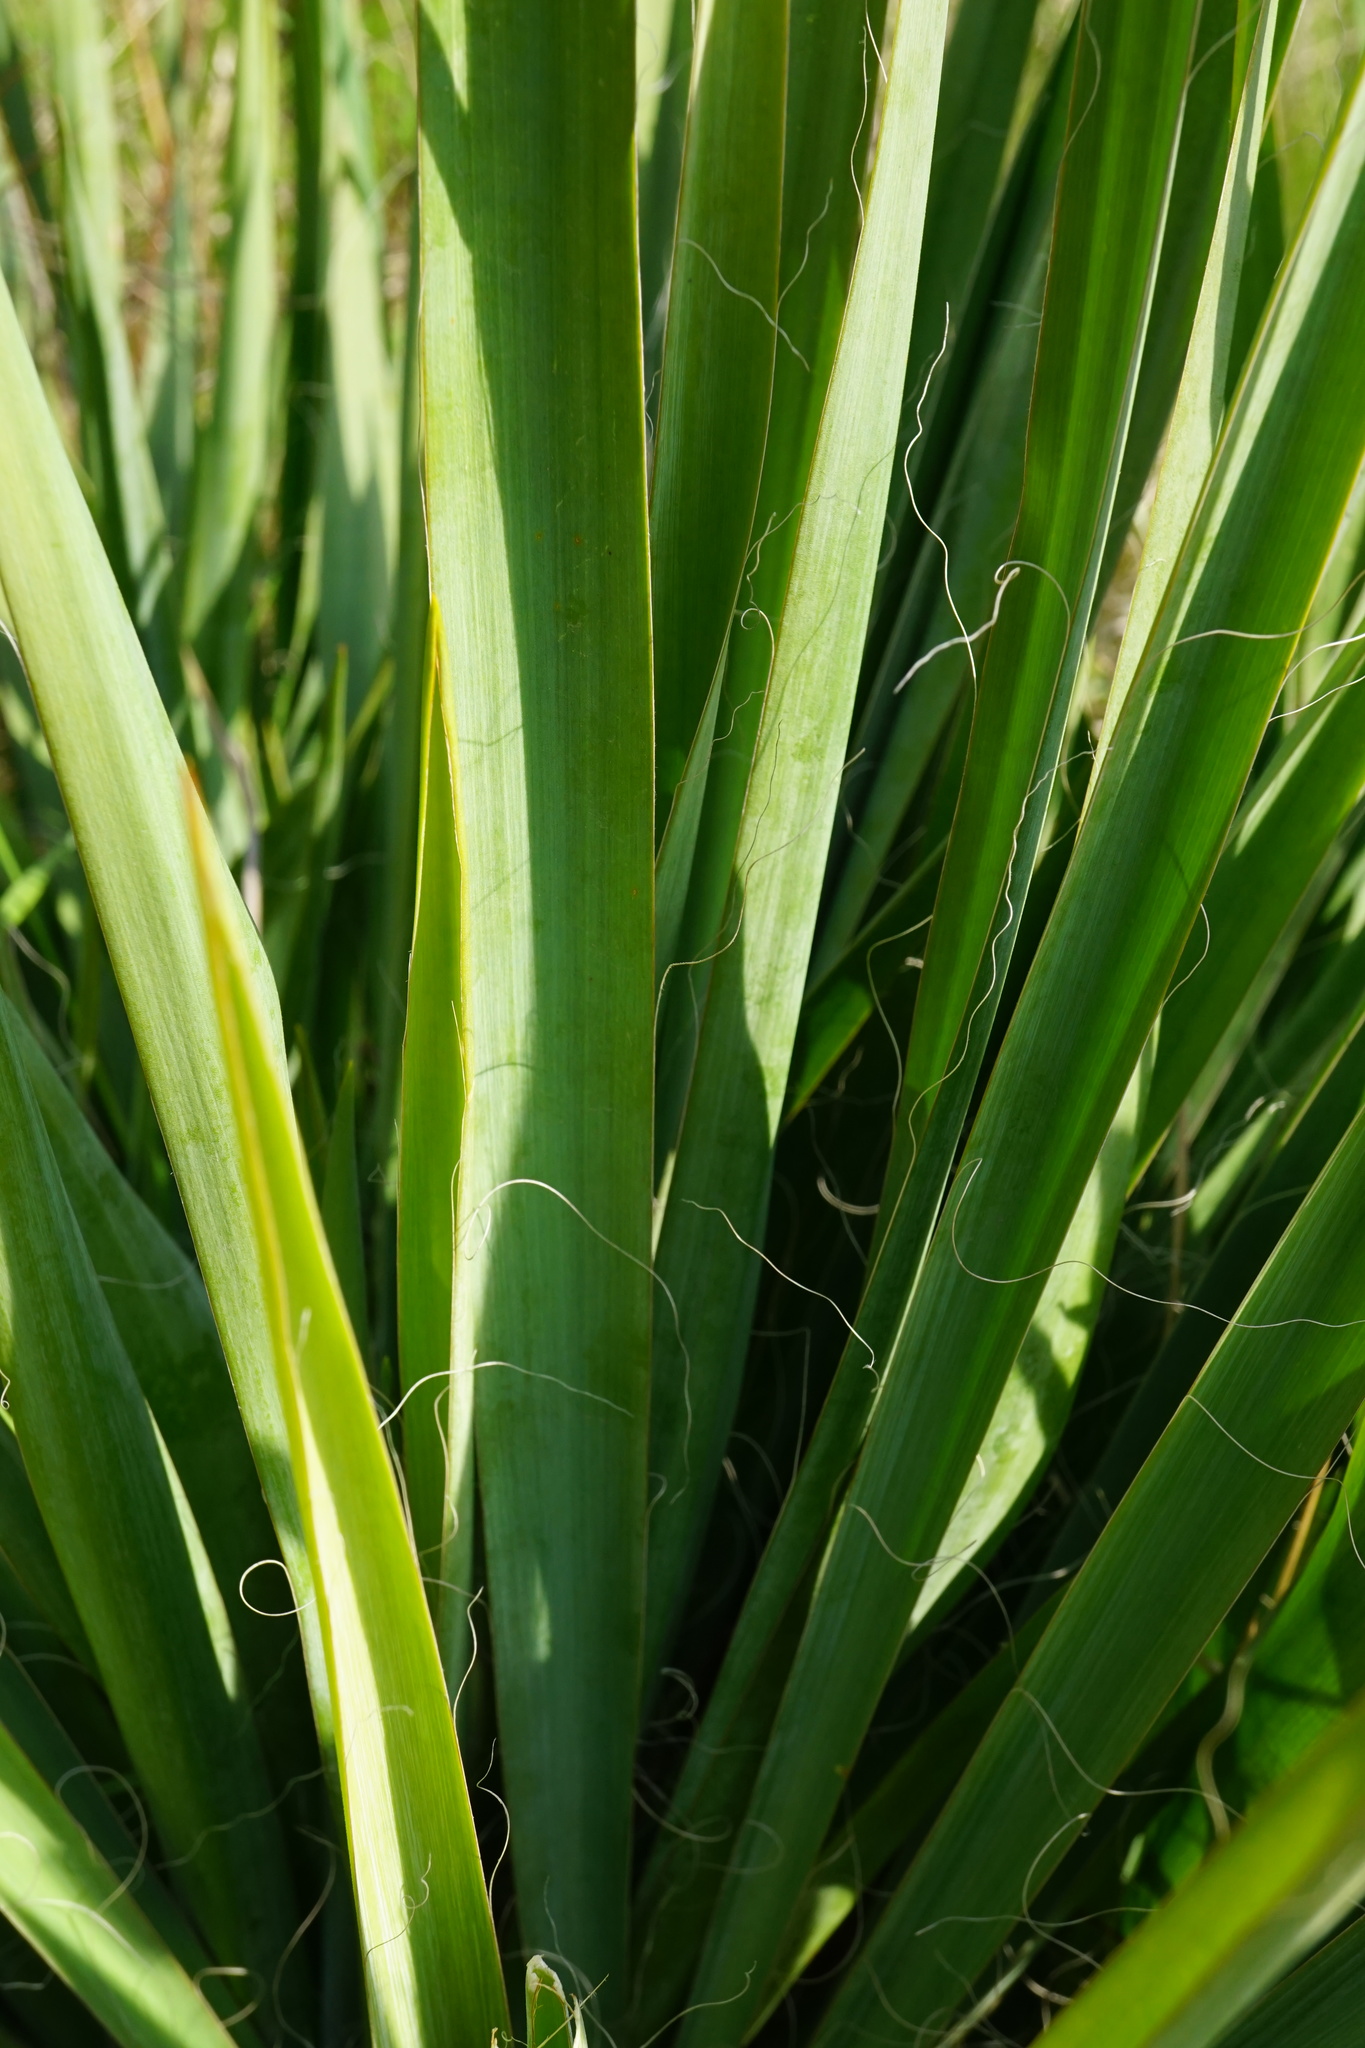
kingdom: Plantae
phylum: Tracheophyta
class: Liliopsida
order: Asparagales
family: Asparagaceae
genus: Yucca
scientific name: Yucca filamentosa
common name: Adam's-needle
